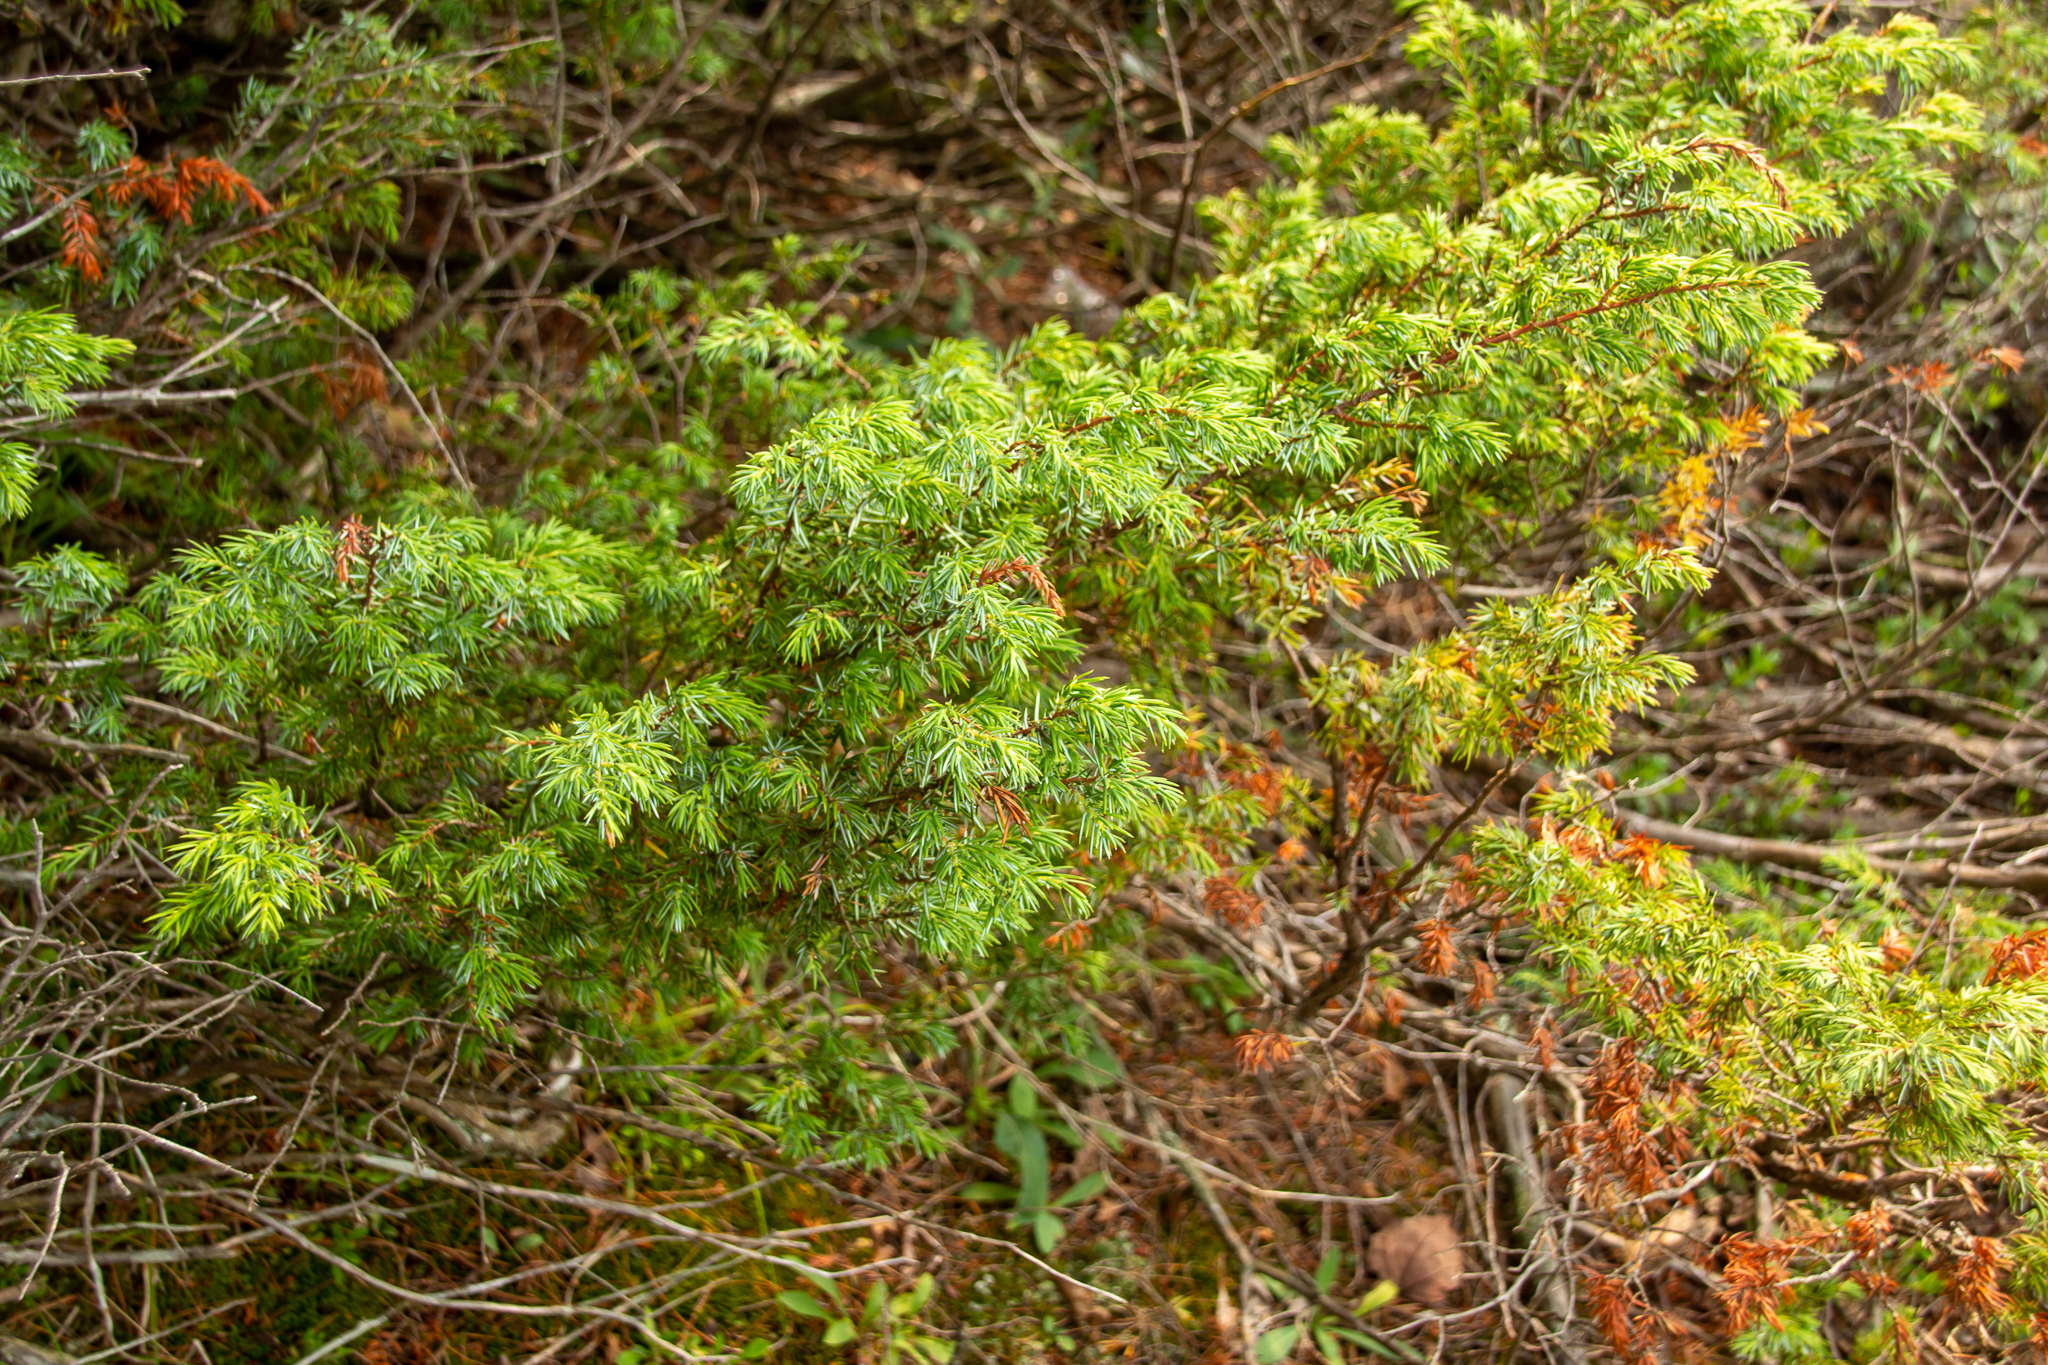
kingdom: Plantae
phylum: Tracheophyta
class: Pinopsida
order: Pinales
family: Cupressaceae
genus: Juniperus
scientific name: Juniperus communis
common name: Common juniper
